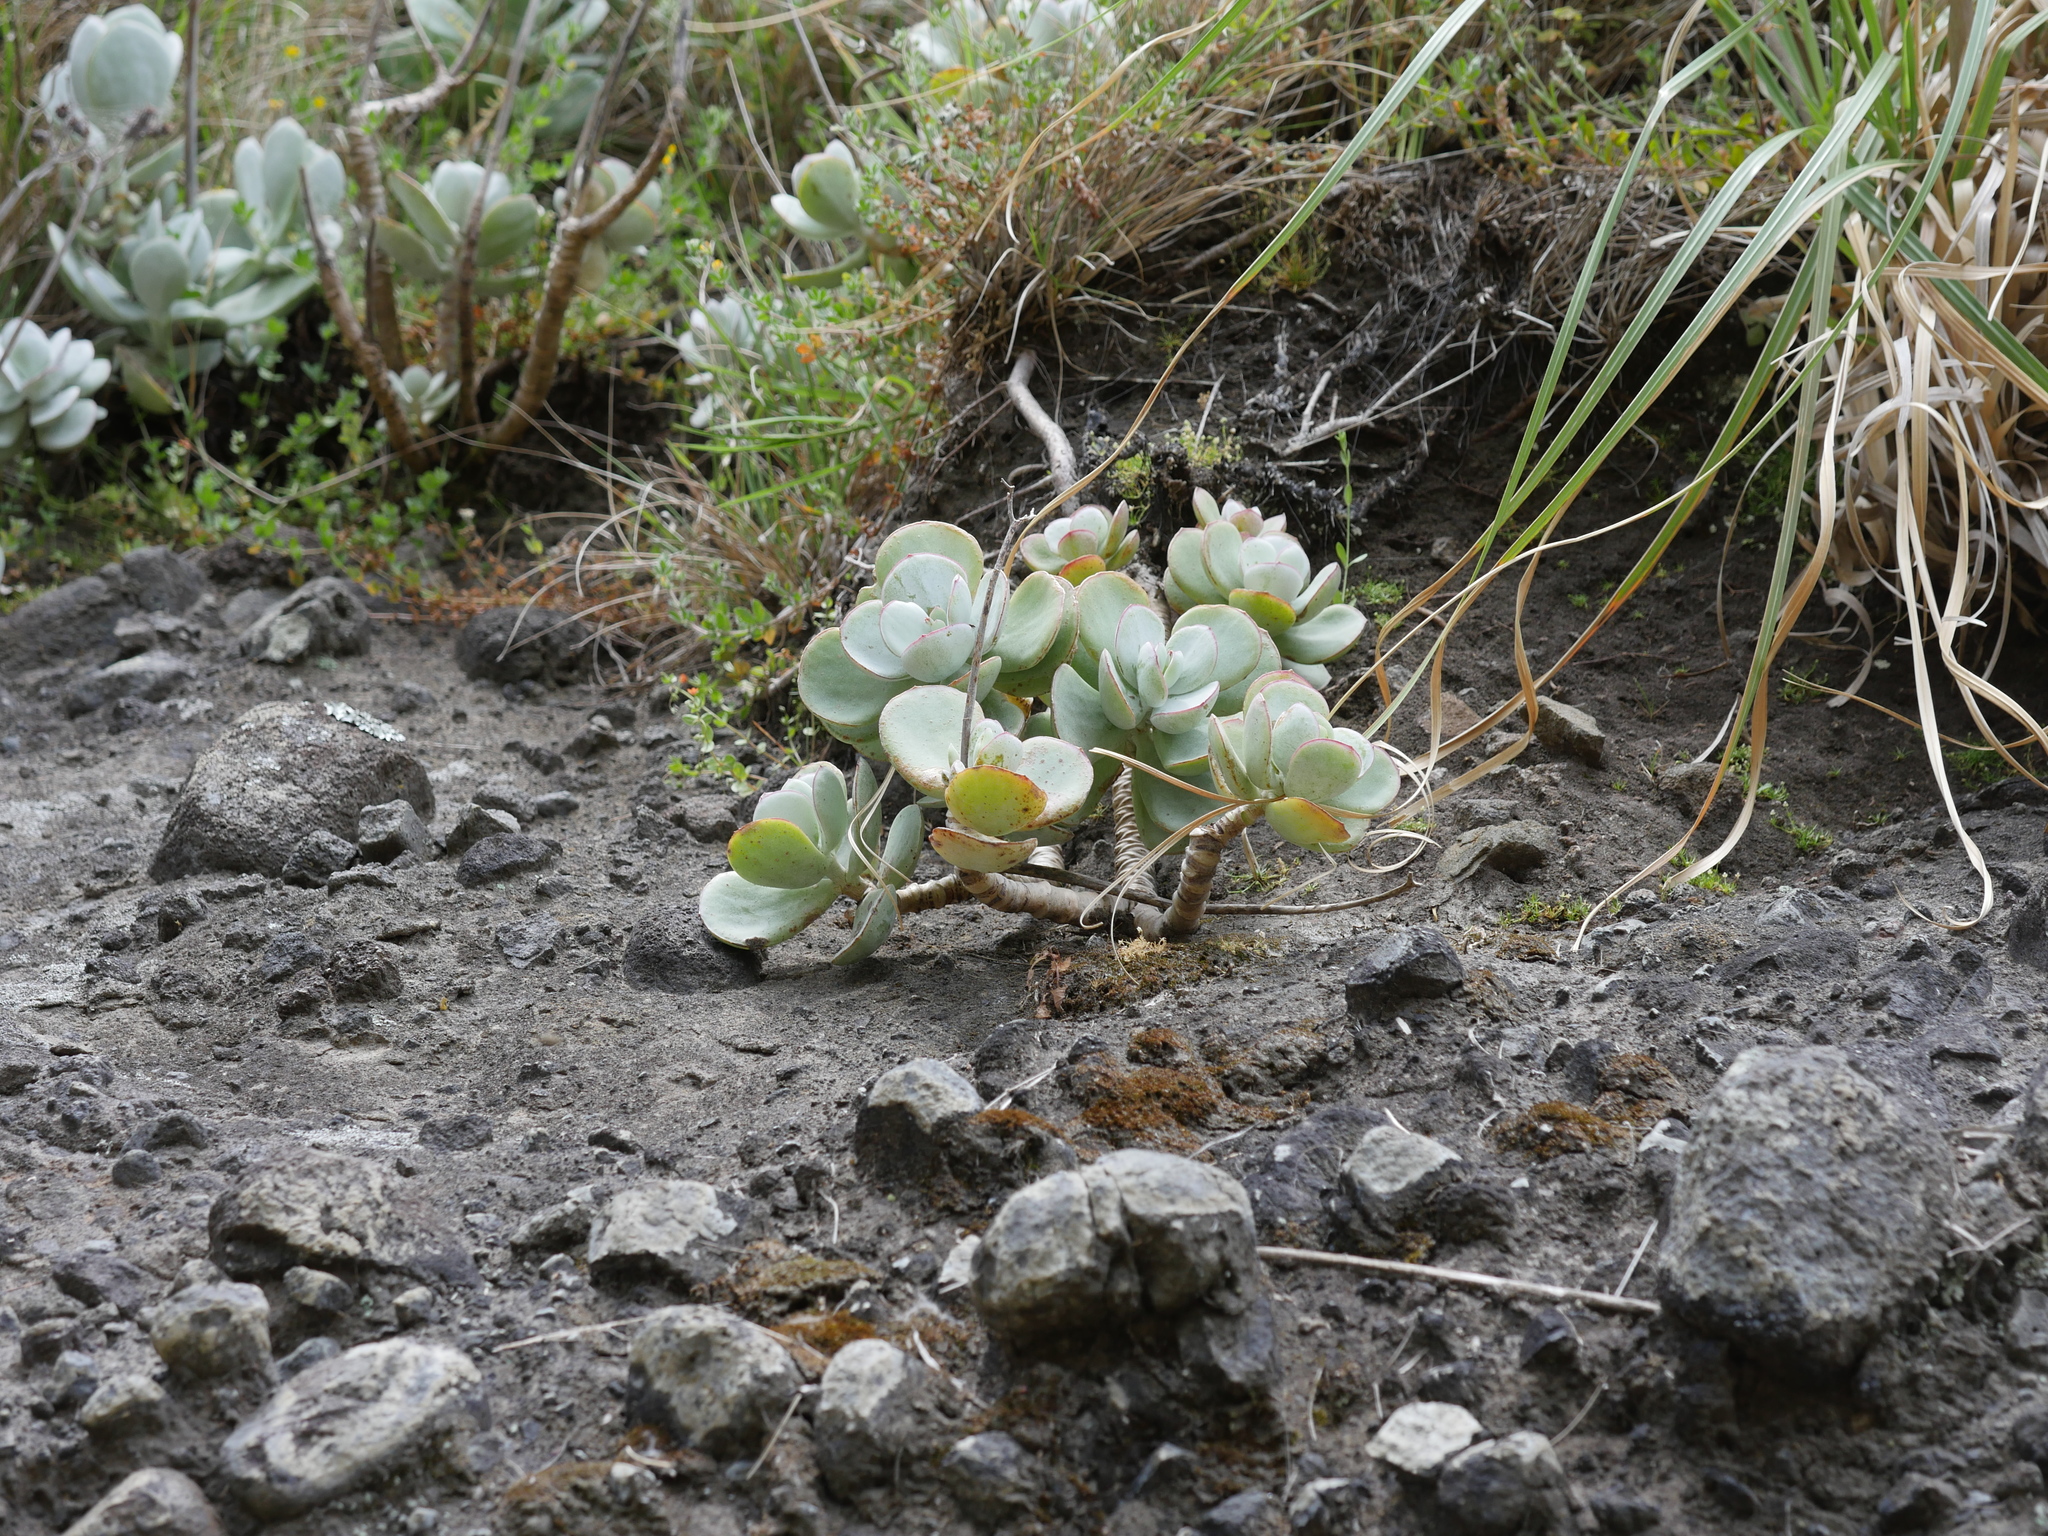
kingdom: Plantae
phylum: Tracheophyta
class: Magnoliopsida
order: Saxifragales
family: Crassulaceae
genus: Cotyledon
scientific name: Cotyledon orbiculata
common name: Pig's ear
